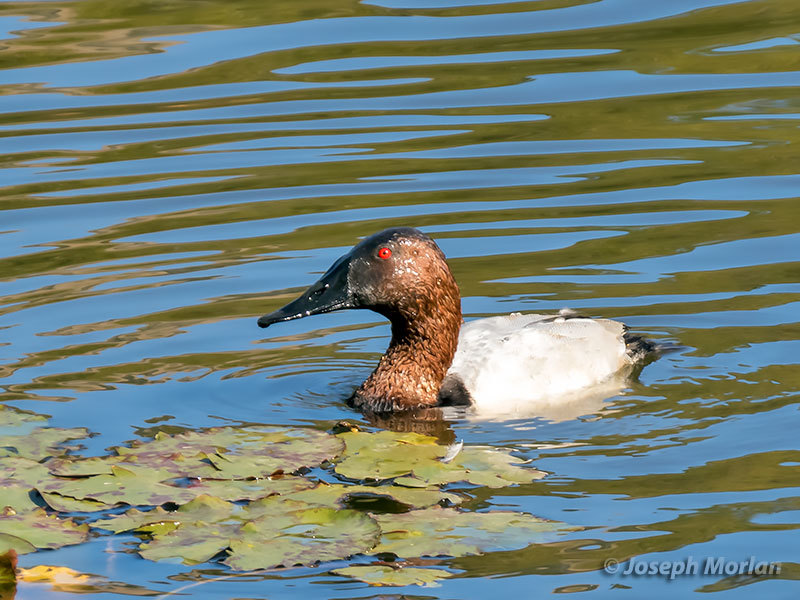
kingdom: Animalia
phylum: Chordata
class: Aves
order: Anseriformes
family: Anatidae
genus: Aythya
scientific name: Aythya valisineria
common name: Canvasback
